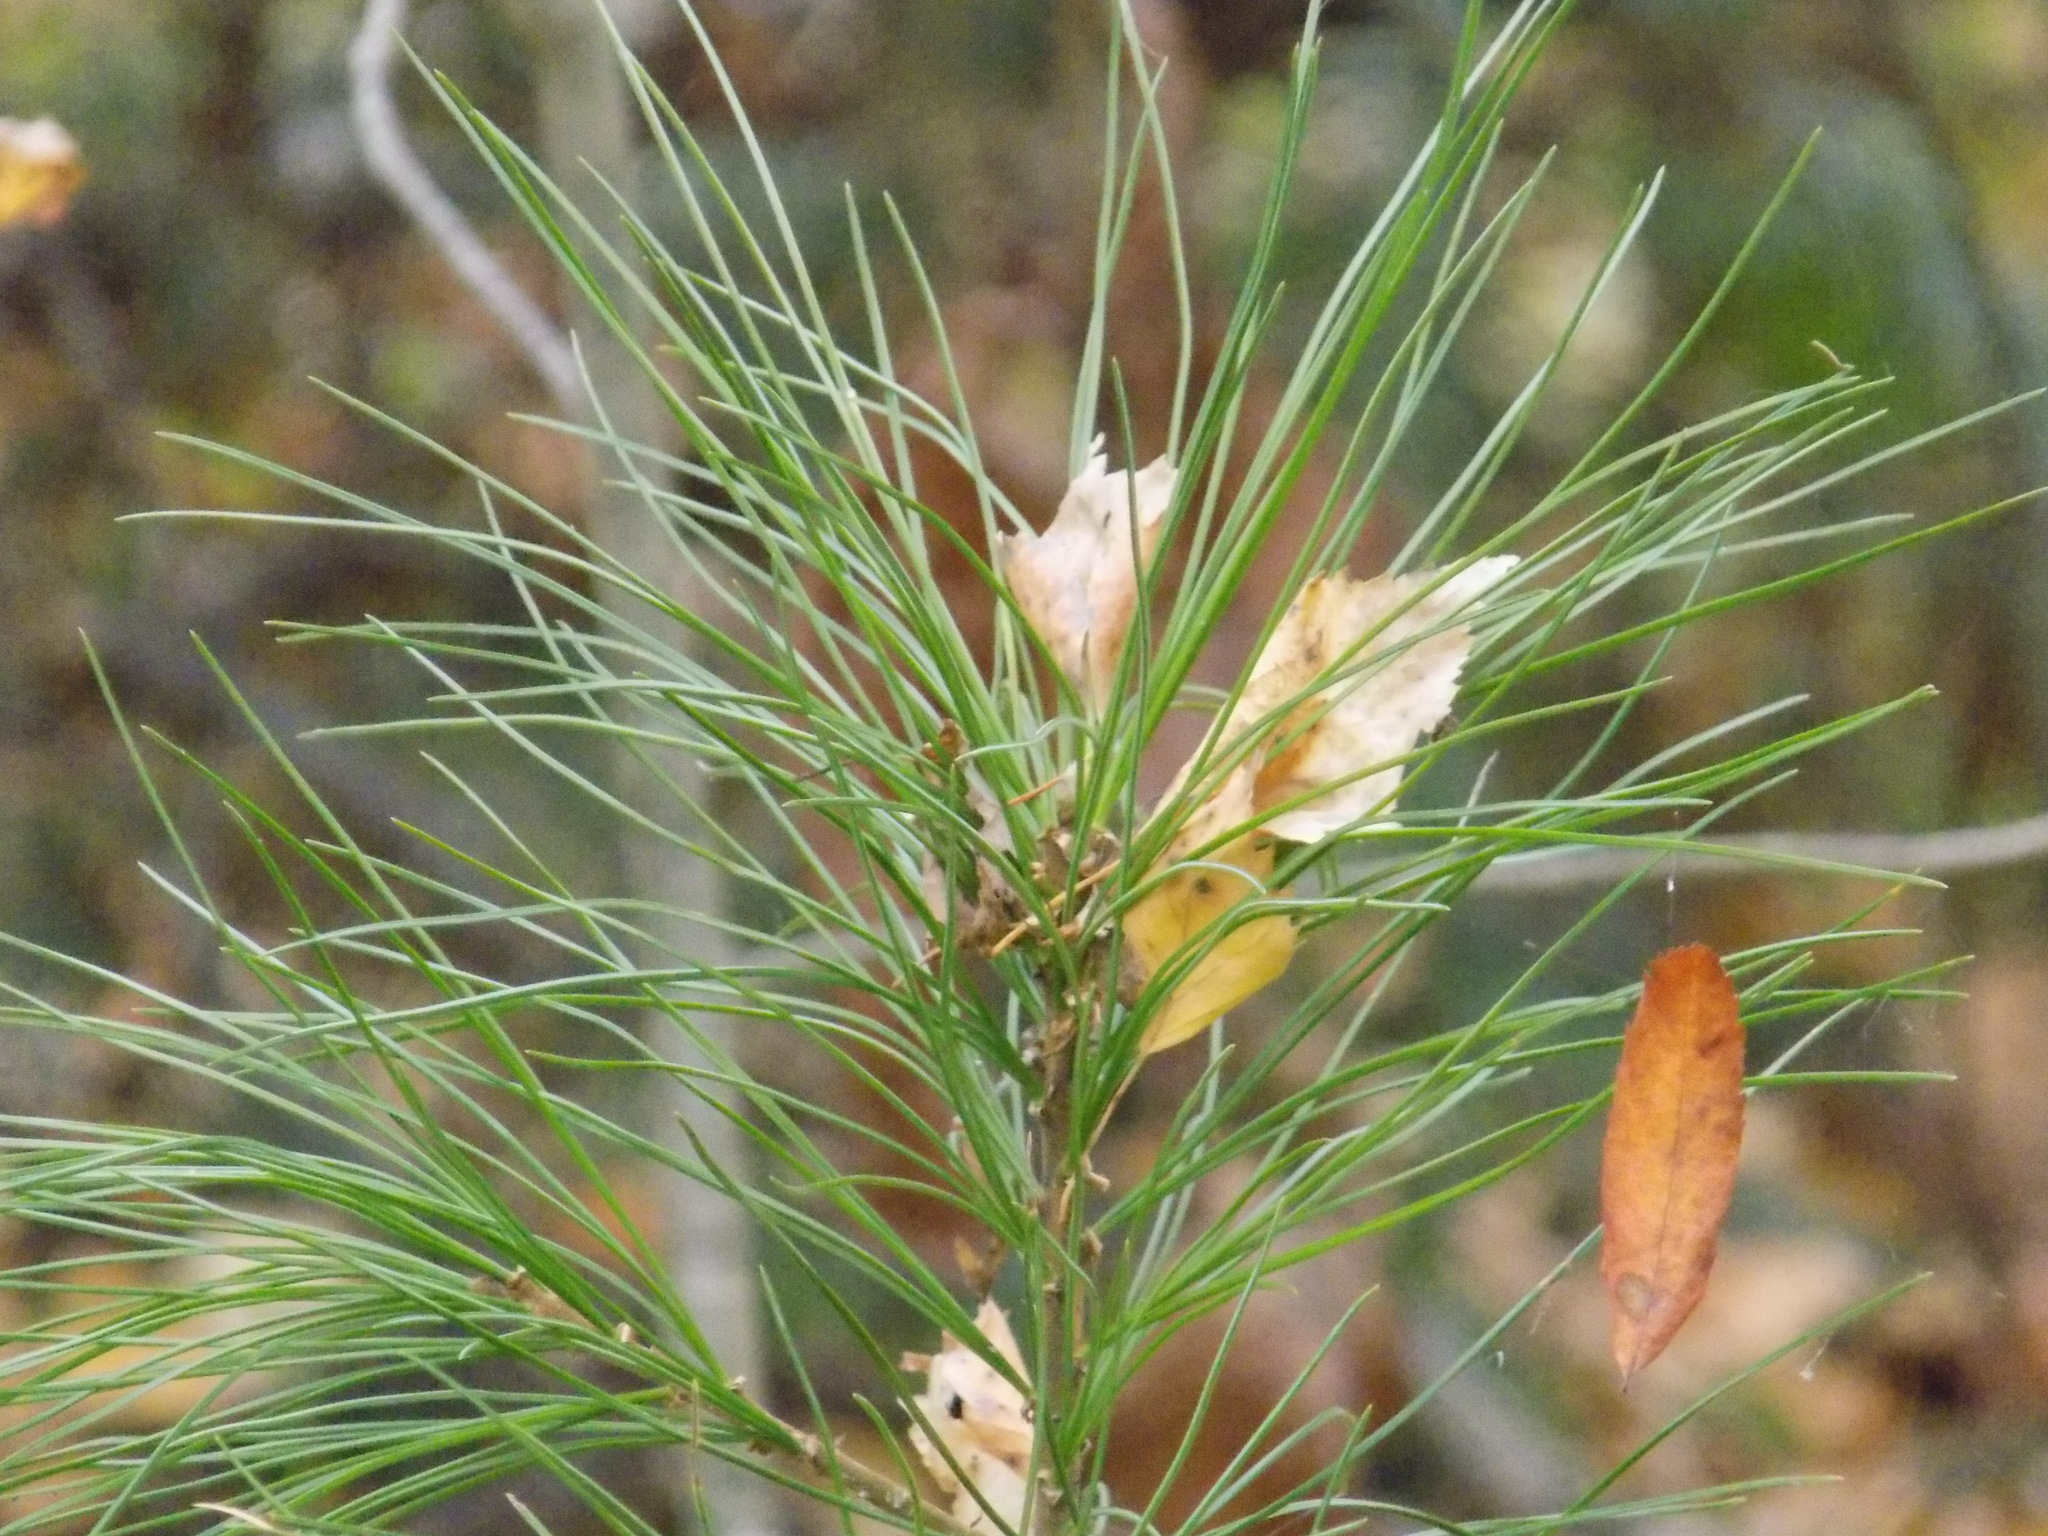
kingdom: Plantae
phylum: Tracheophyta
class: Pinopsida
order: Pinales
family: Pinaceae
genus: Pinus
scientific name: Pinus sibirica
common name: Siberian pine
